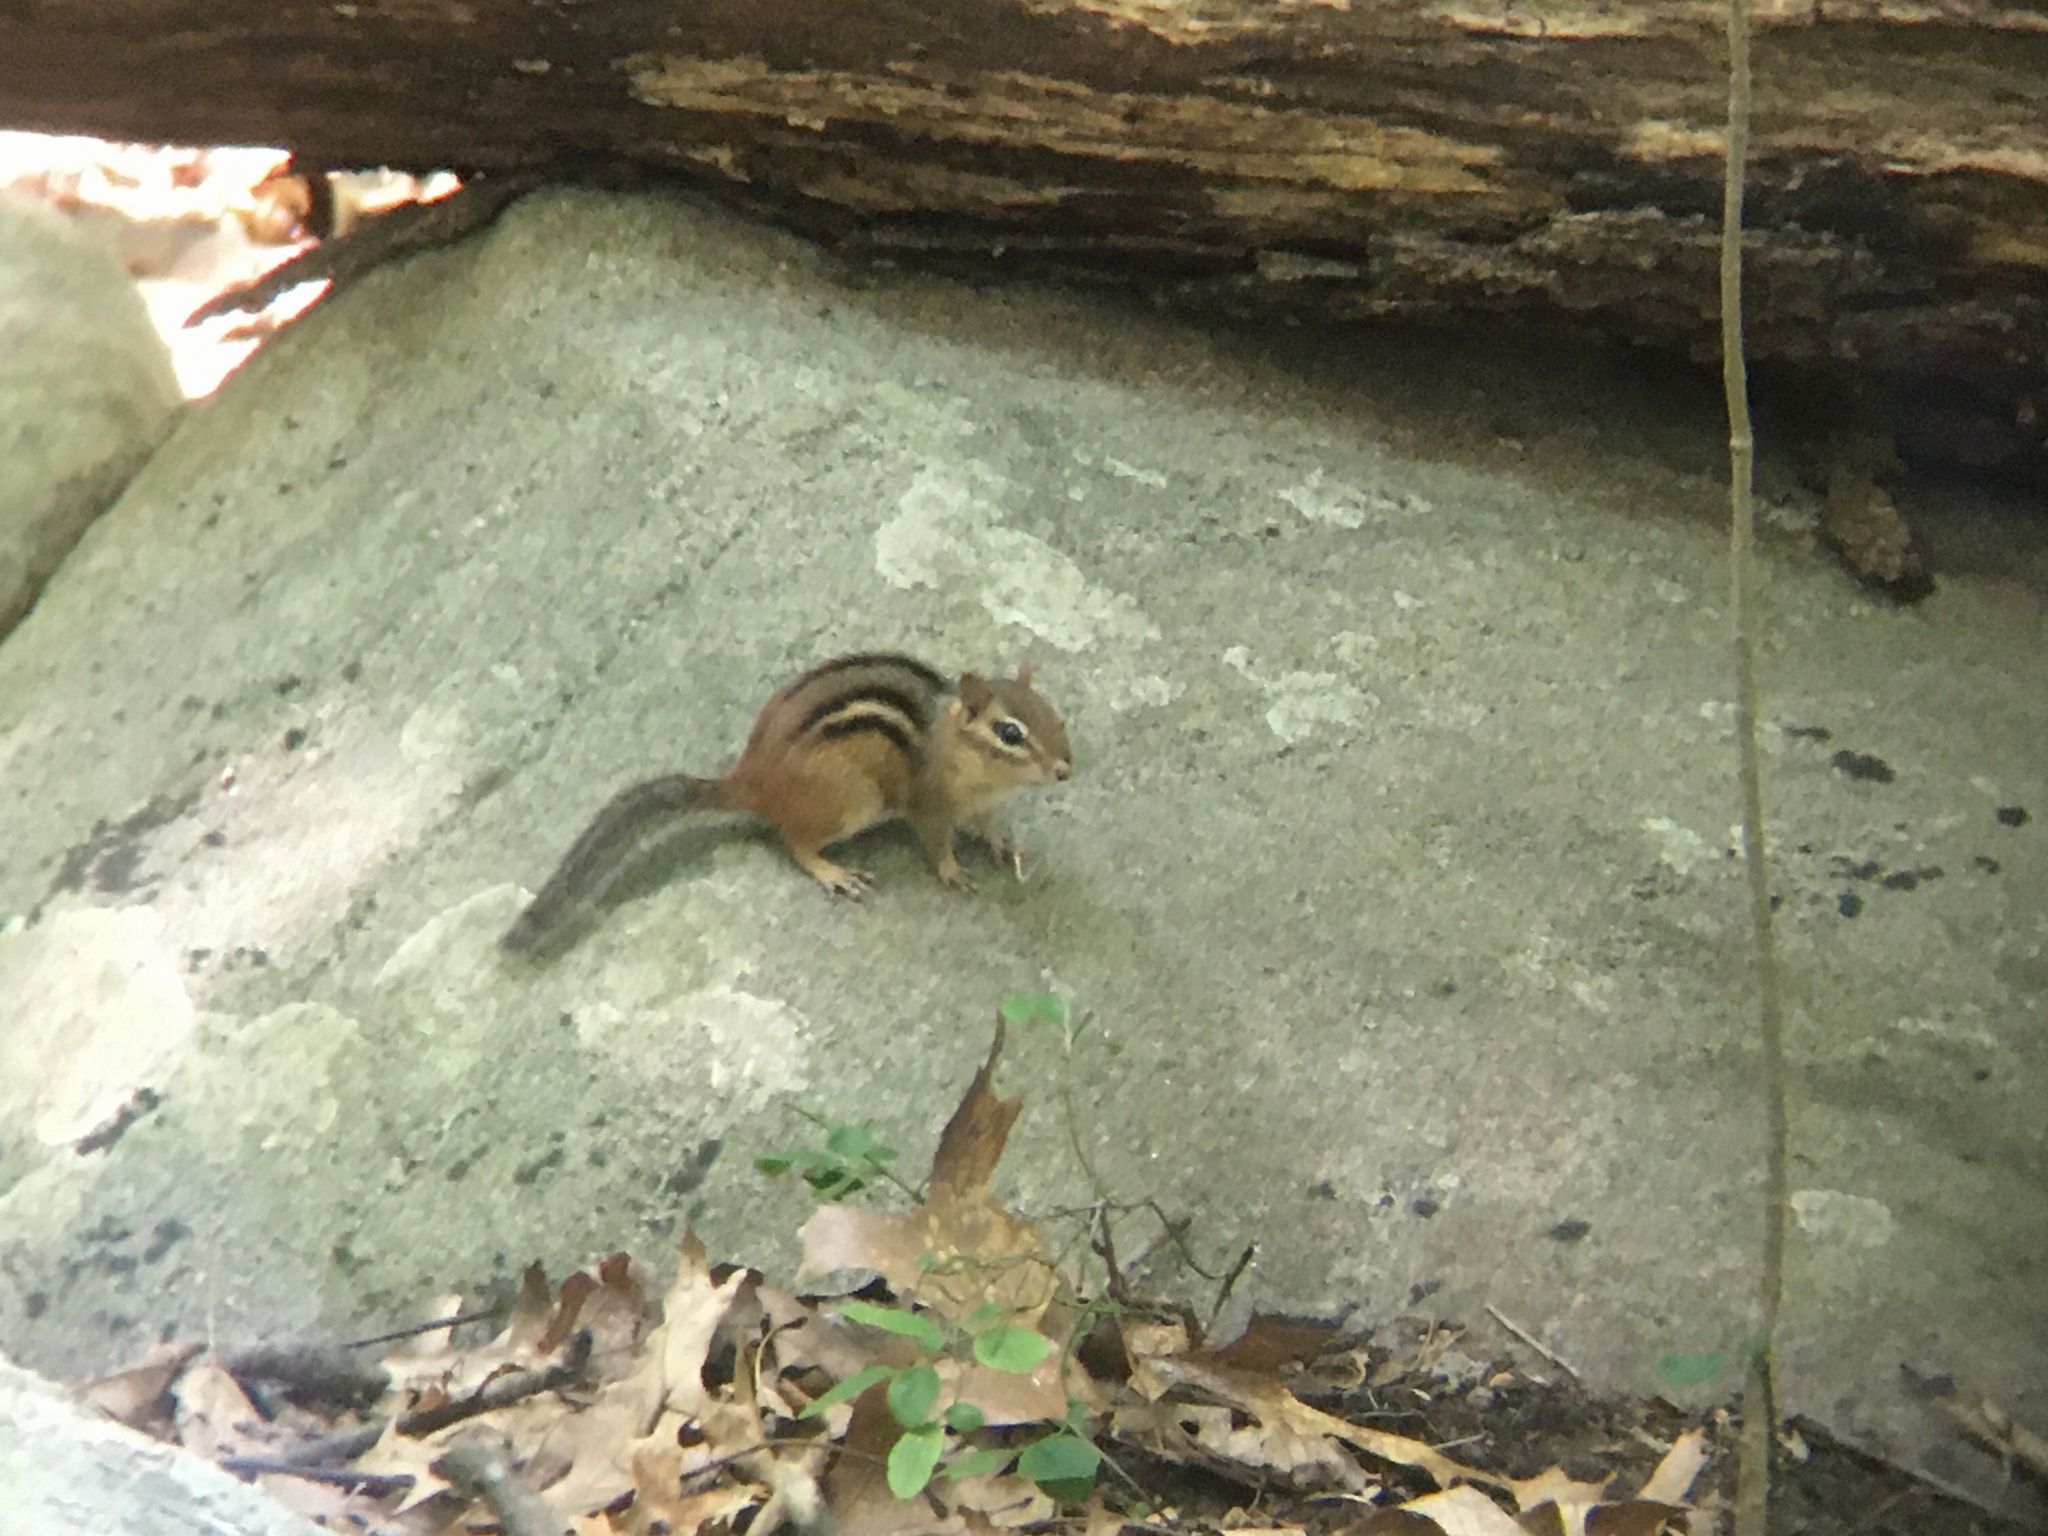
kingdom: Animalia
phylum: Chordata
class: Mammalia
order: Rodentia
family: Sciuridae
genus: Tamias
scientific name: Tamias striatus
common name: Eastern chipmunk
